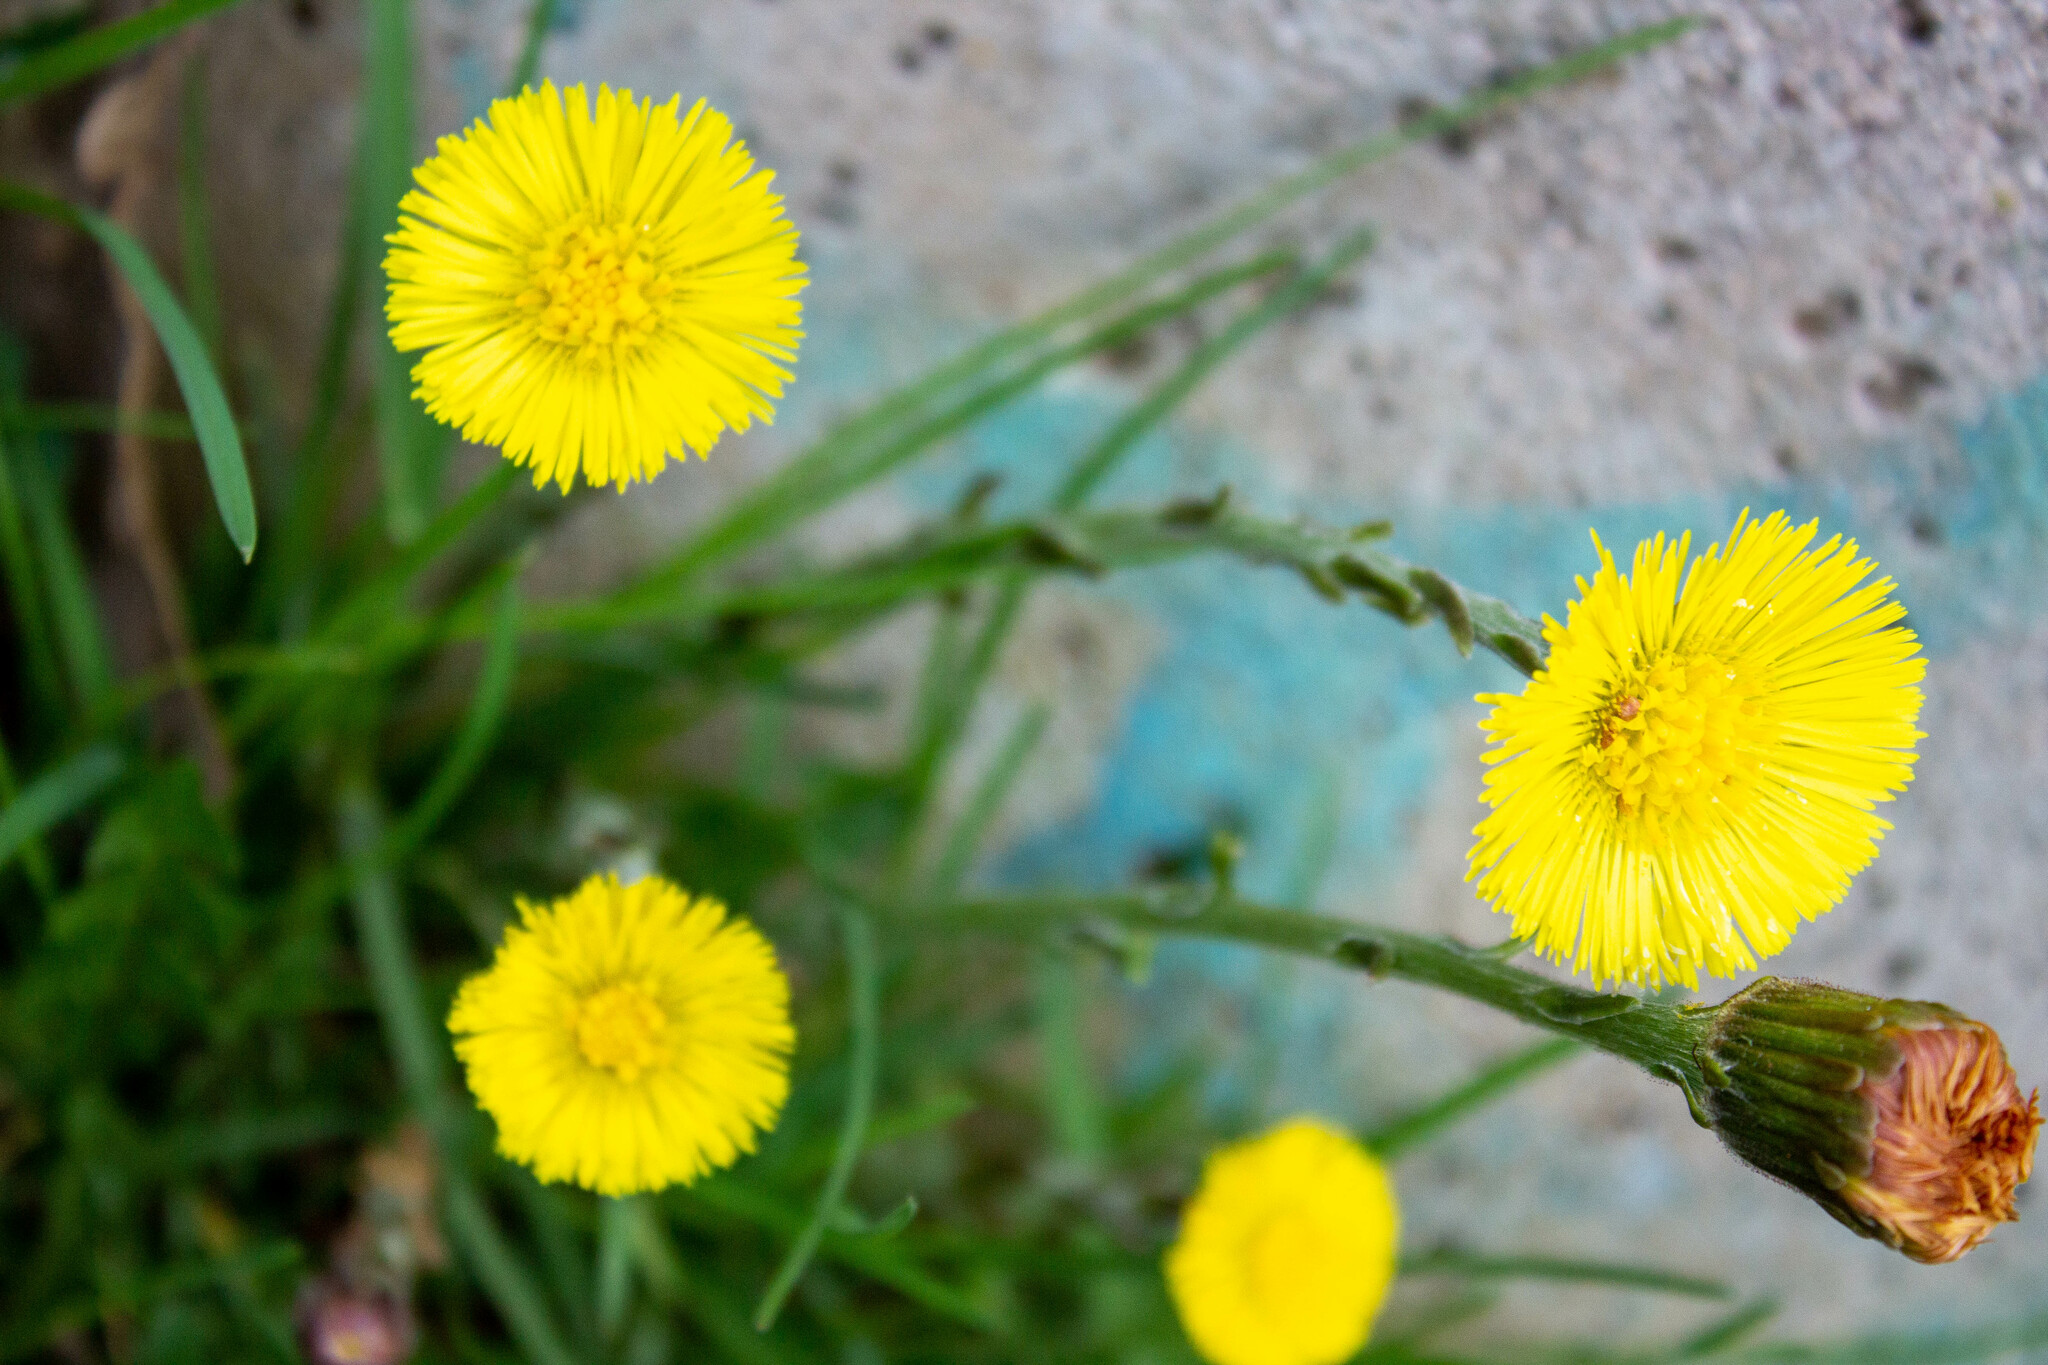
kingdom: Plantae
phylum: Tracheophyta
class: Magnoliopsida
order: Asterales
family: Asteraceae
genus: Tussilago
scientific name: Tussilago farfara
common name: Coltsfoot
